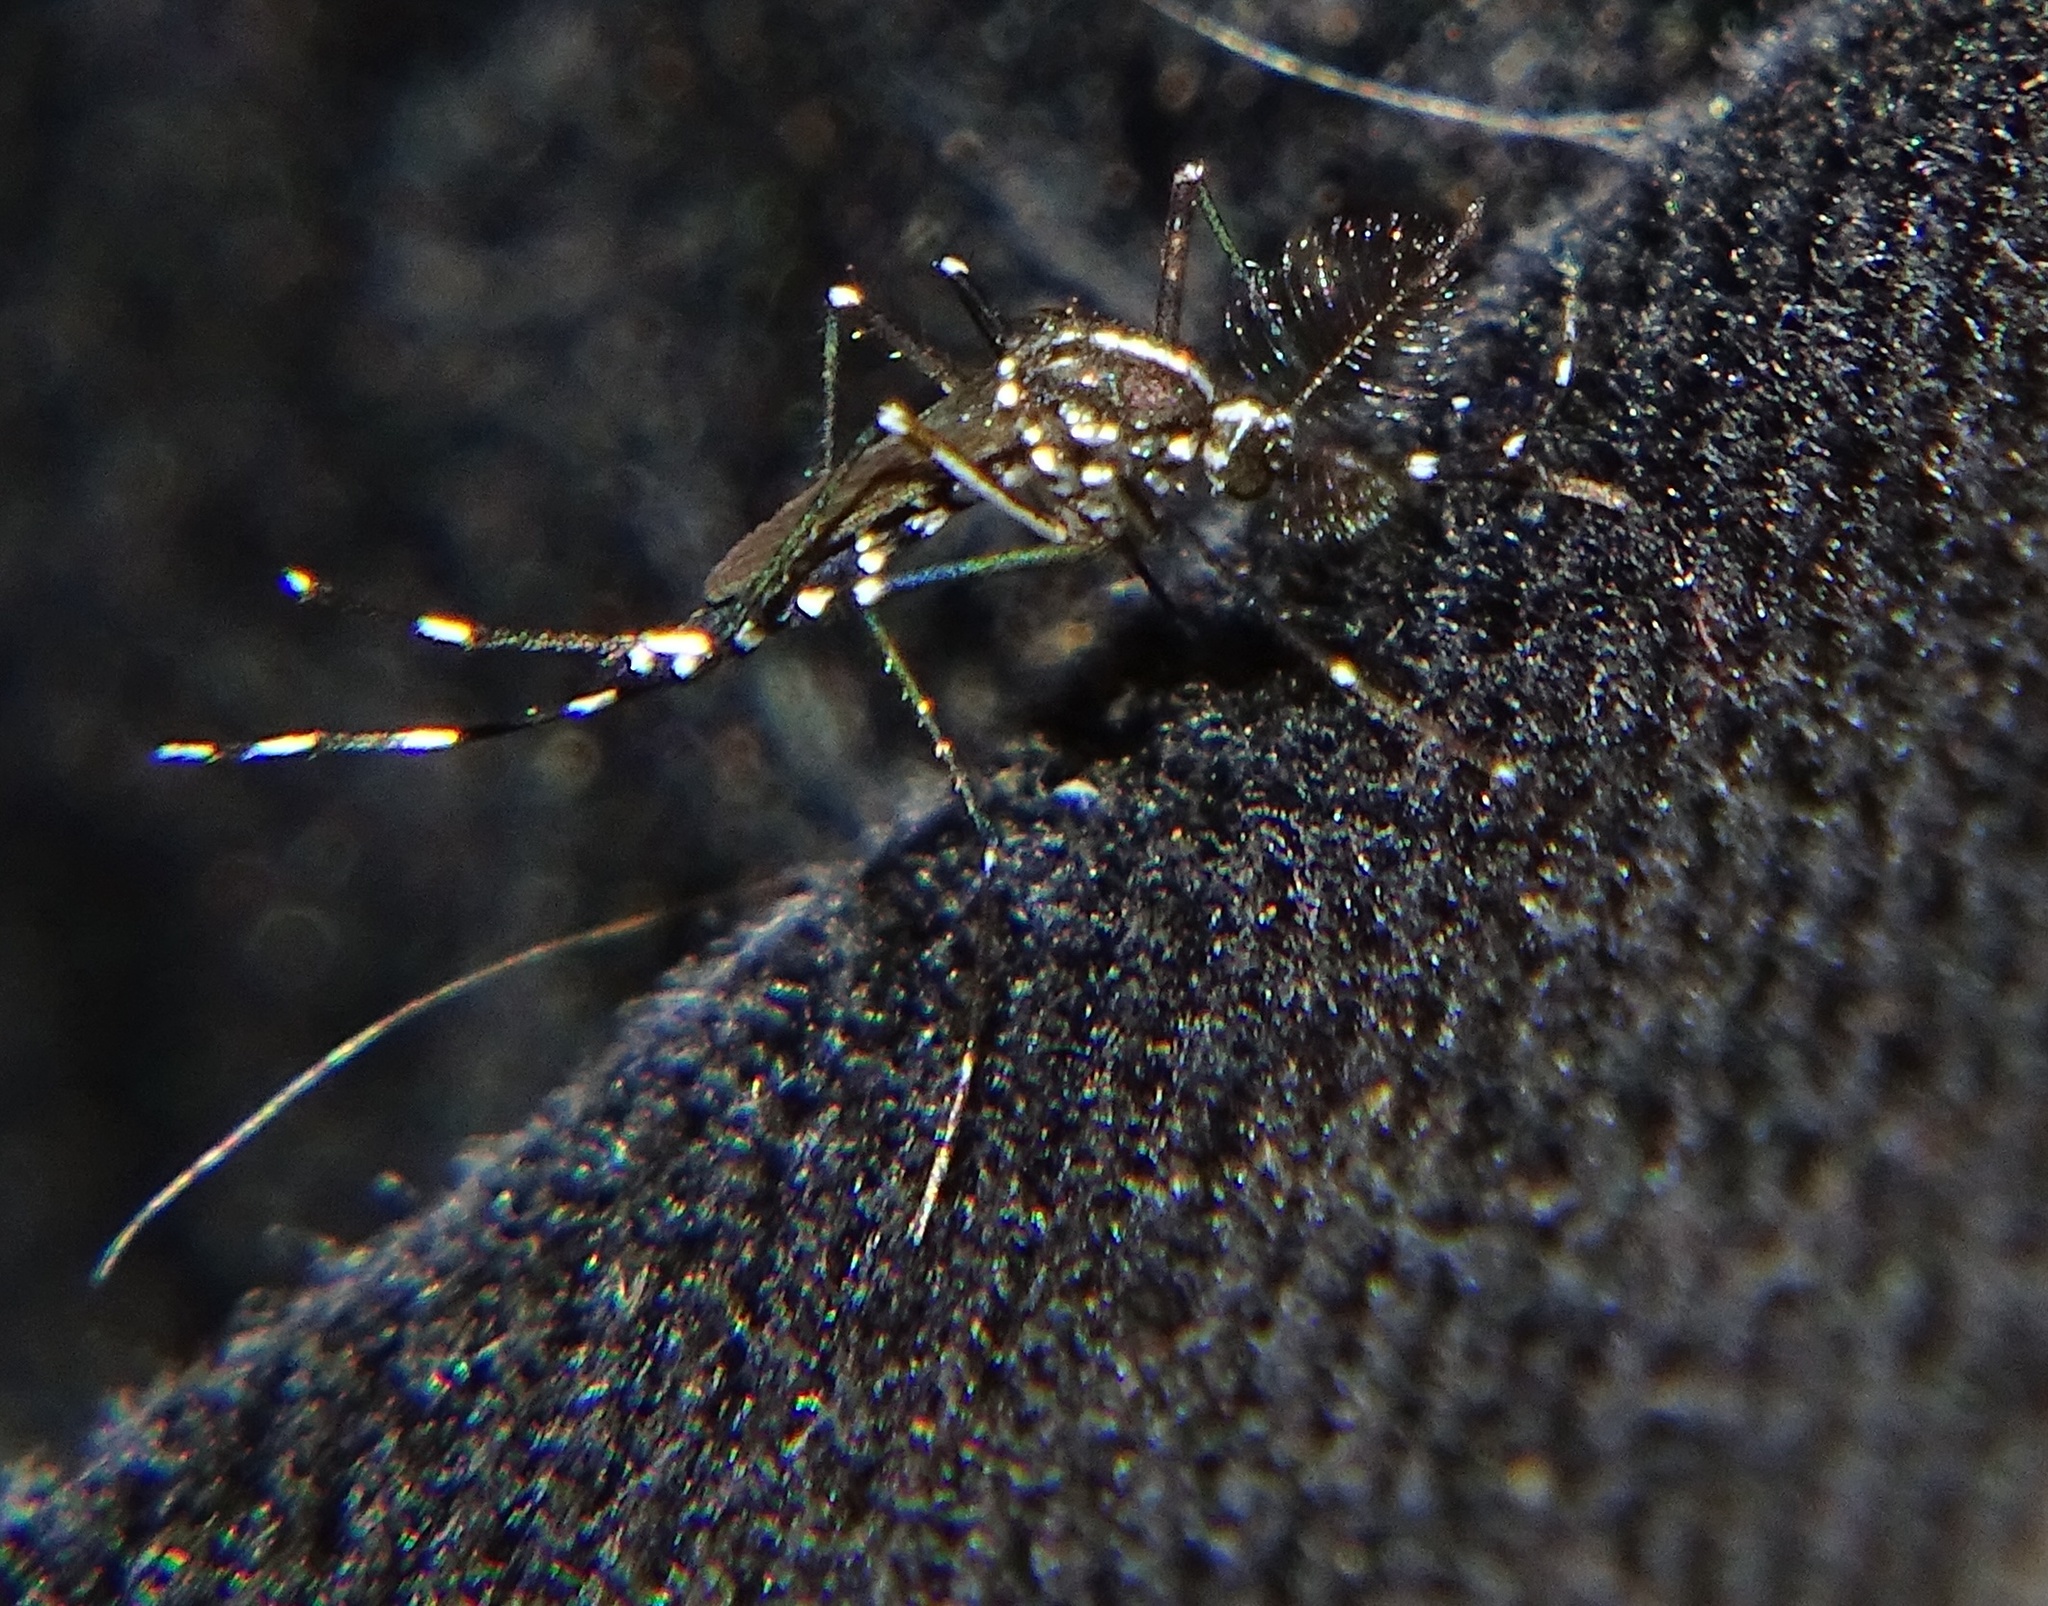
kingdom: Animalia
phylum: Arthropoda
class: Insecta
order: Diptera
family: Culicidae
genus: Aedes
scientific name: Aedes albopictus
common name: Tiger mosquito
